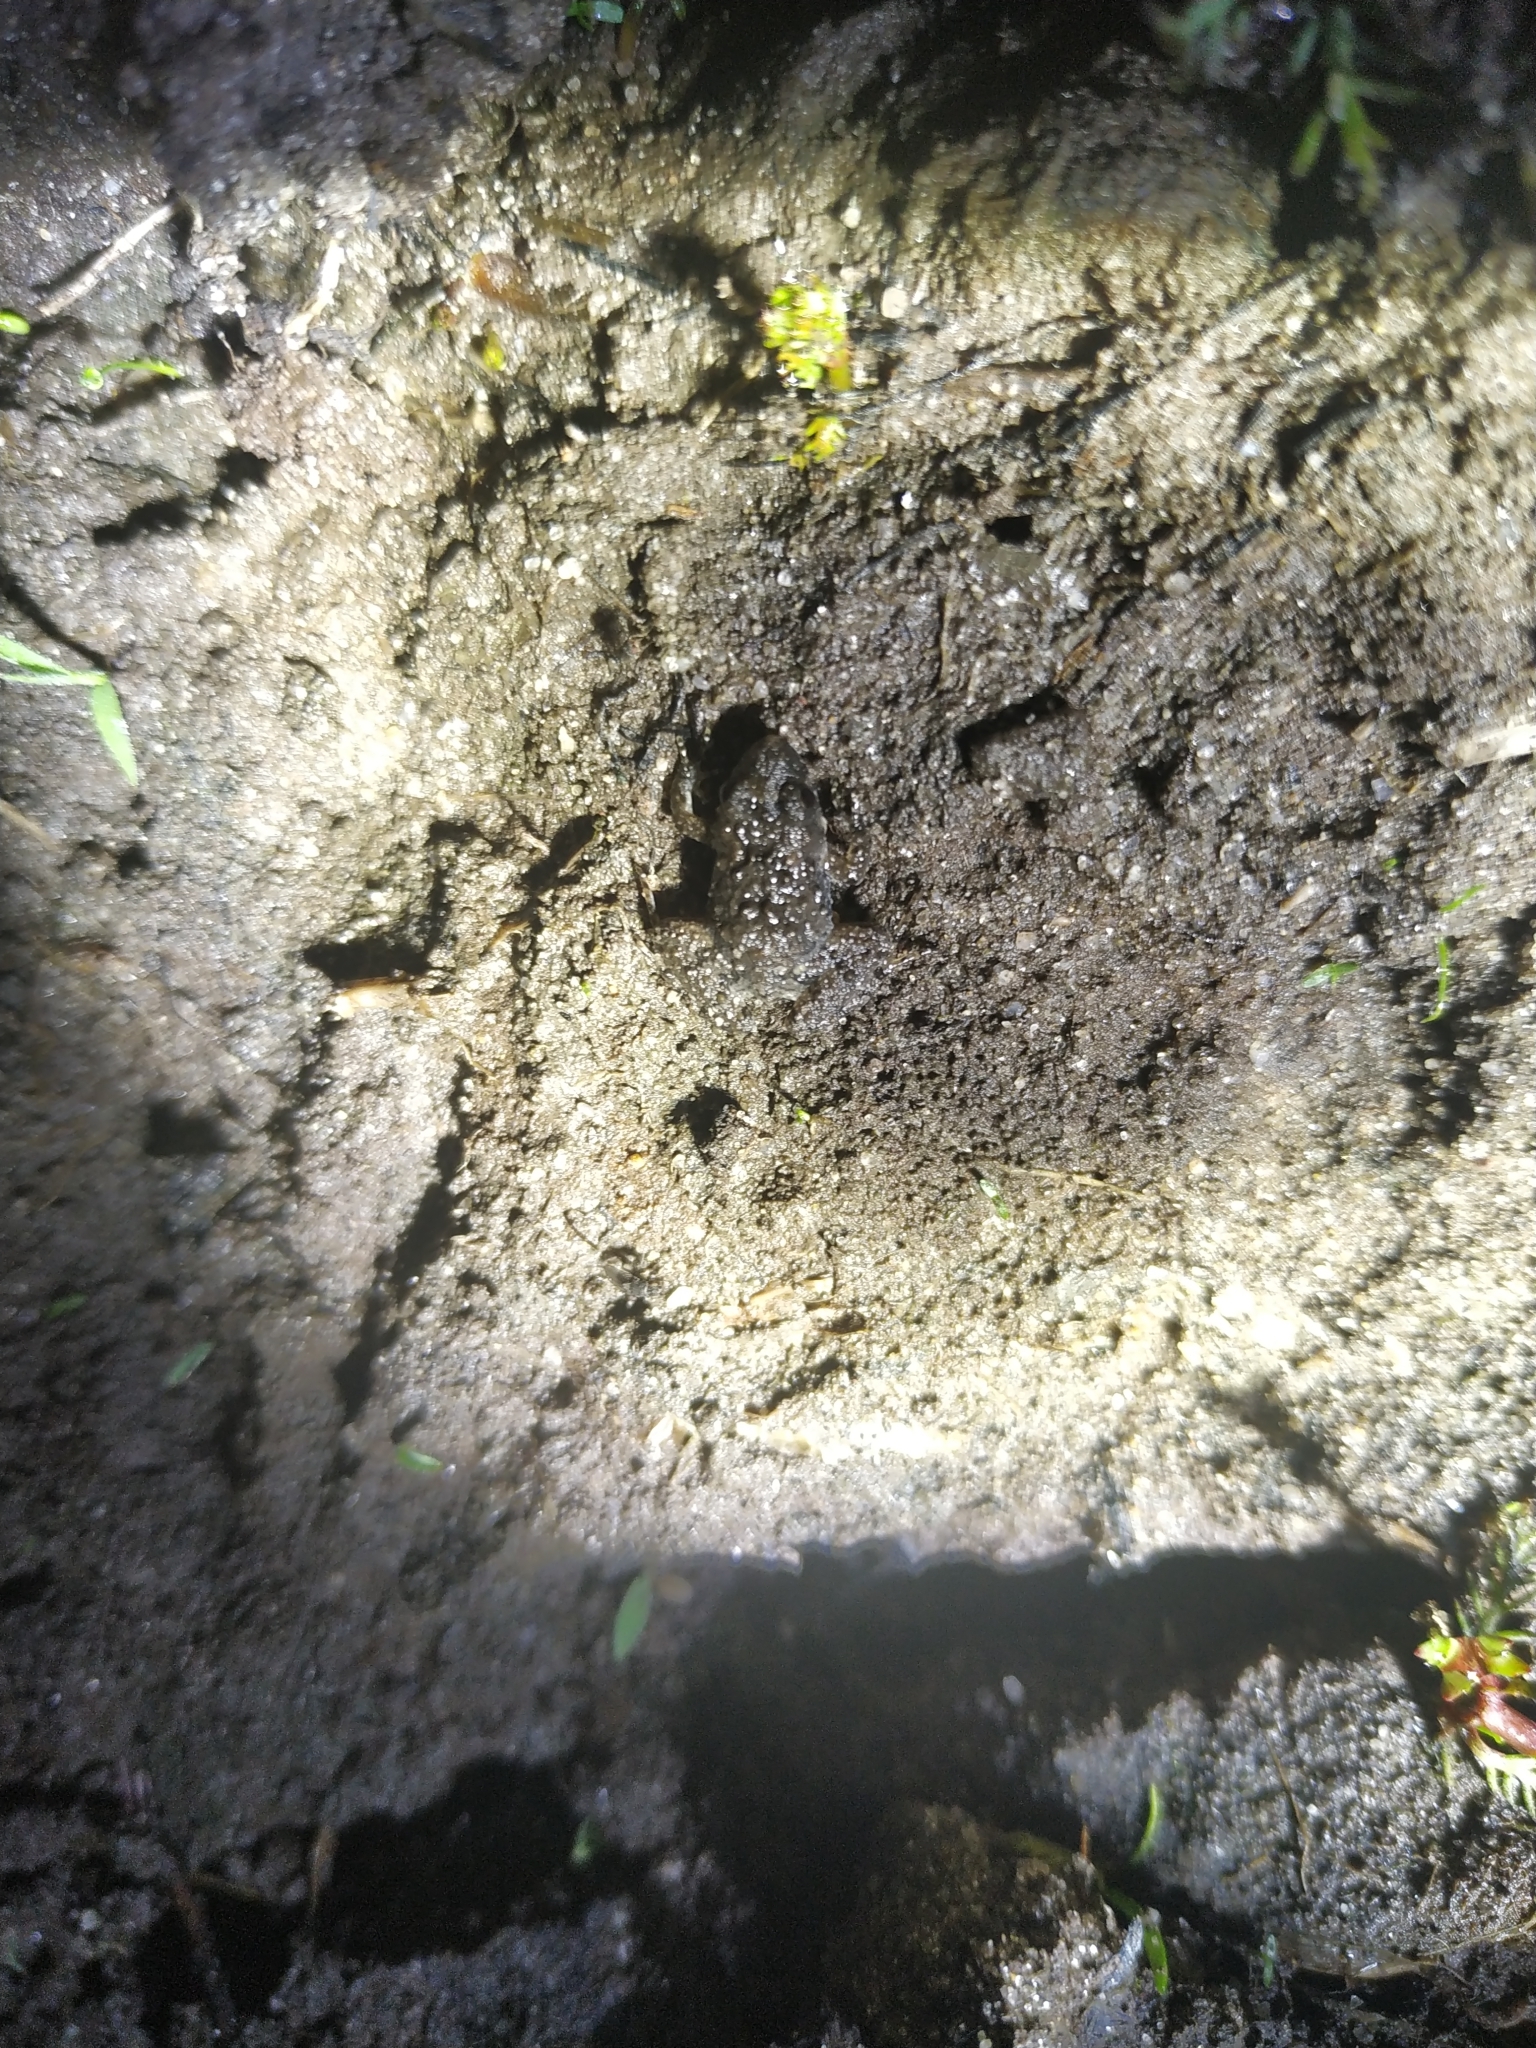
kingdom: Animalia
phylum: Chordata
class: Amphibia
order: Anura
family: Leptodactylidae
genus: Pseudopaludicola
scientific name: Pseudopaludicola falcipes
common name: Hensel’s swamp frog
